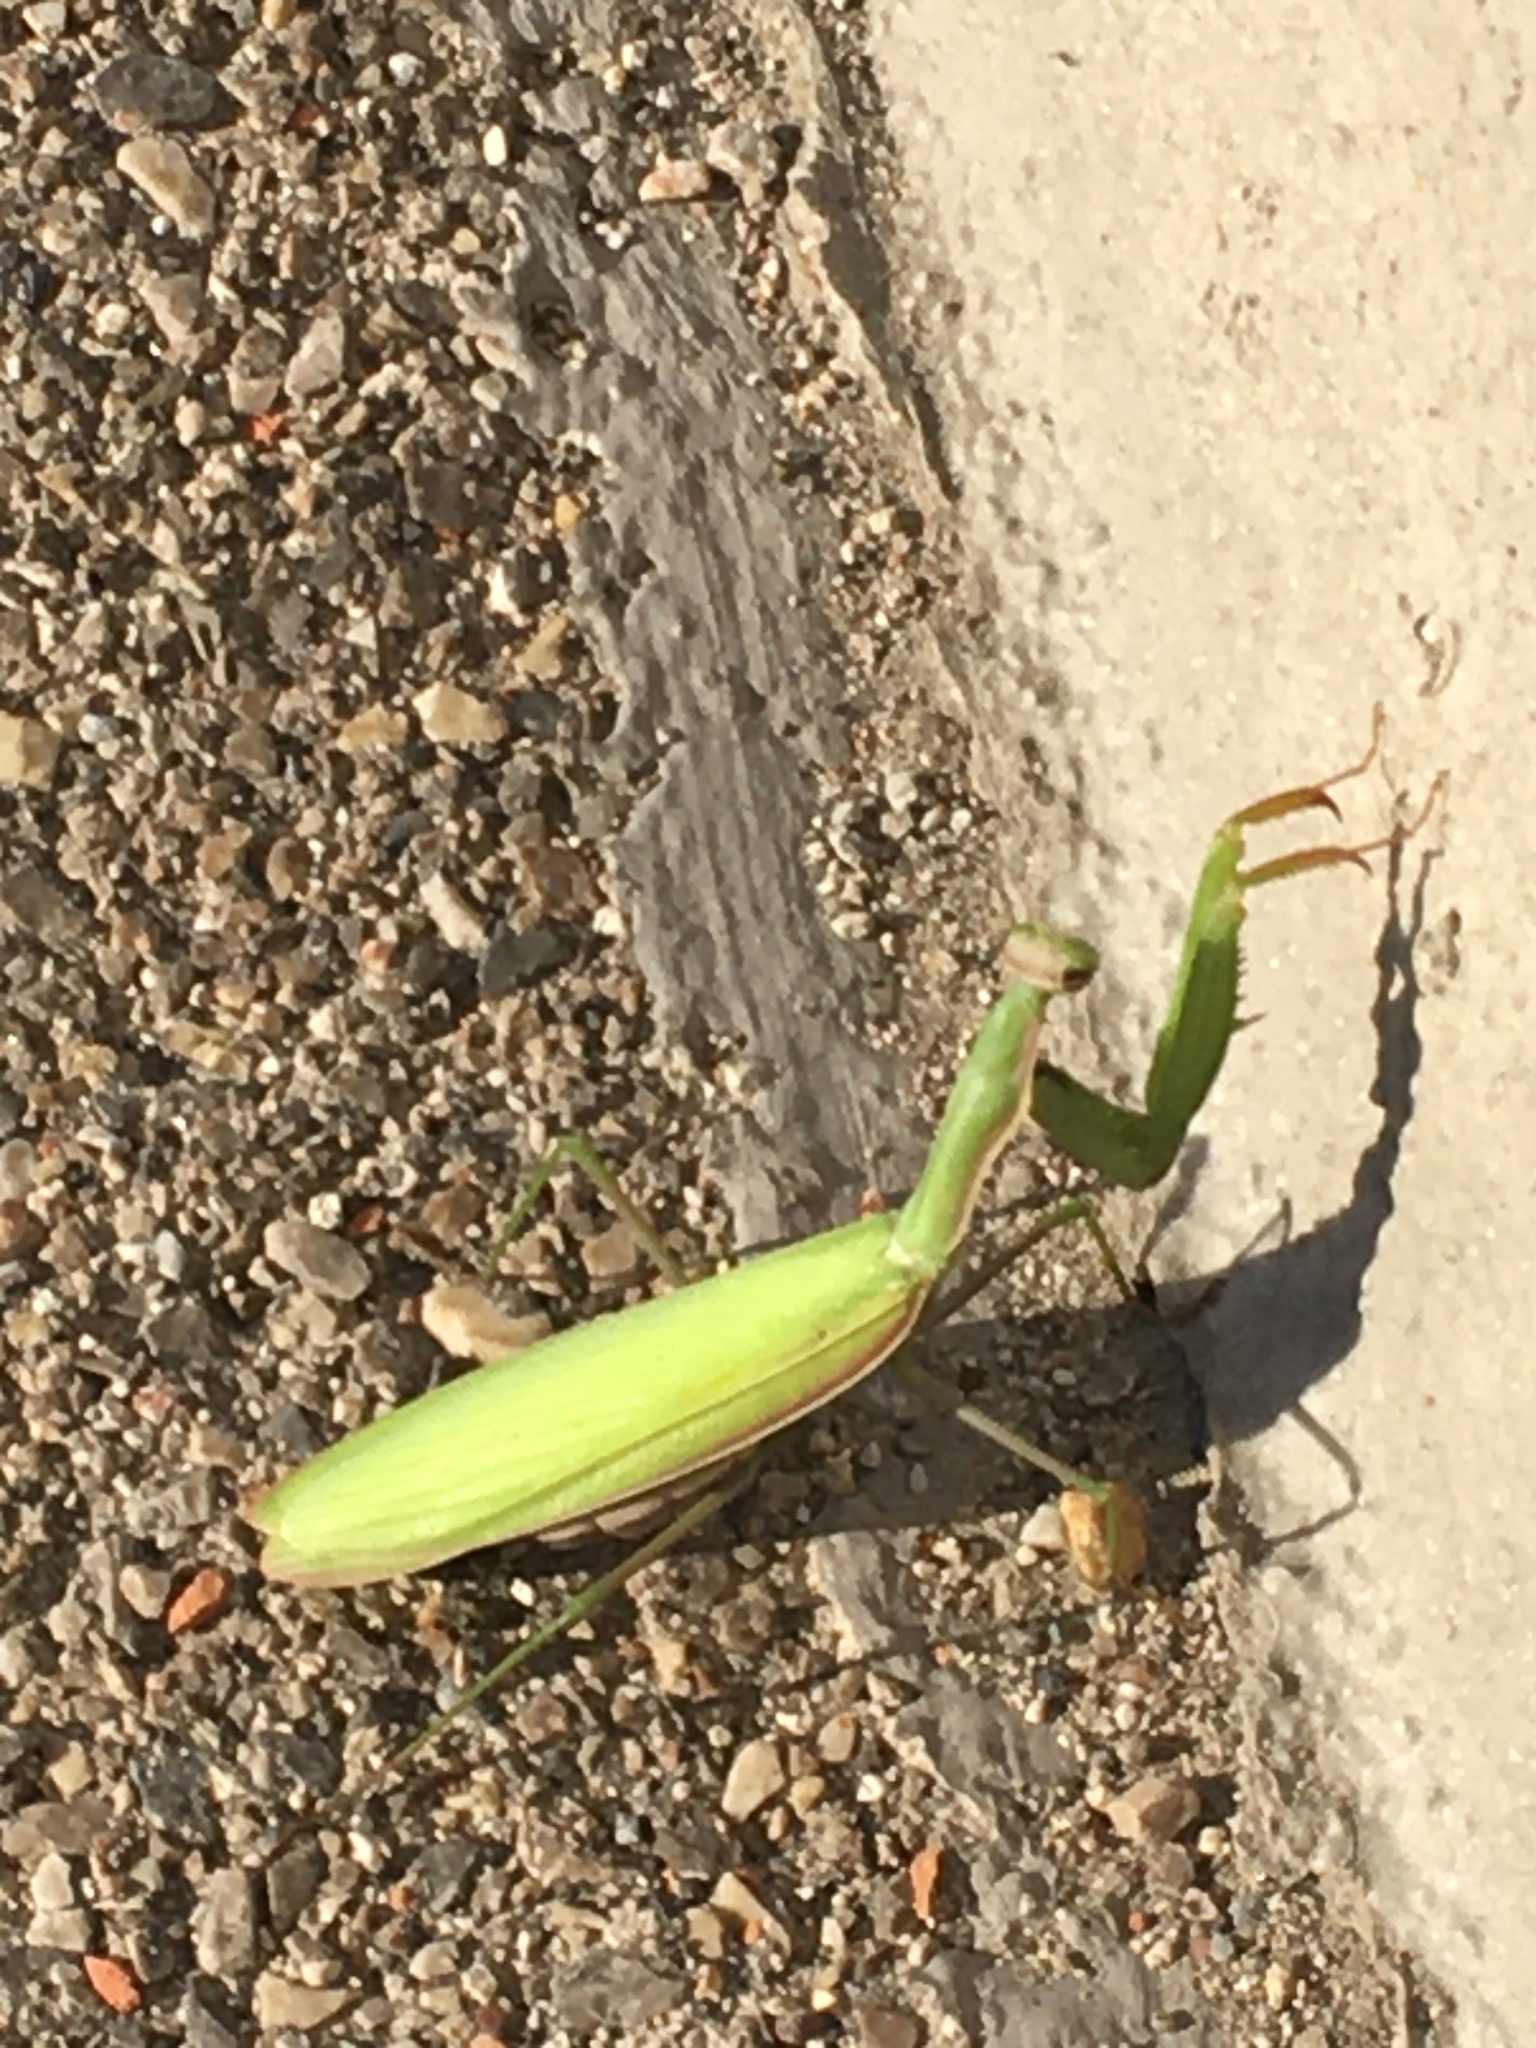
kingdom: Animalia
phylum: Arthropoda
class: Insecta
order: Mantodea
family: Mantidae
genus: Mantis
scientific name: Mantis religiosa
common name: Praying mantis
